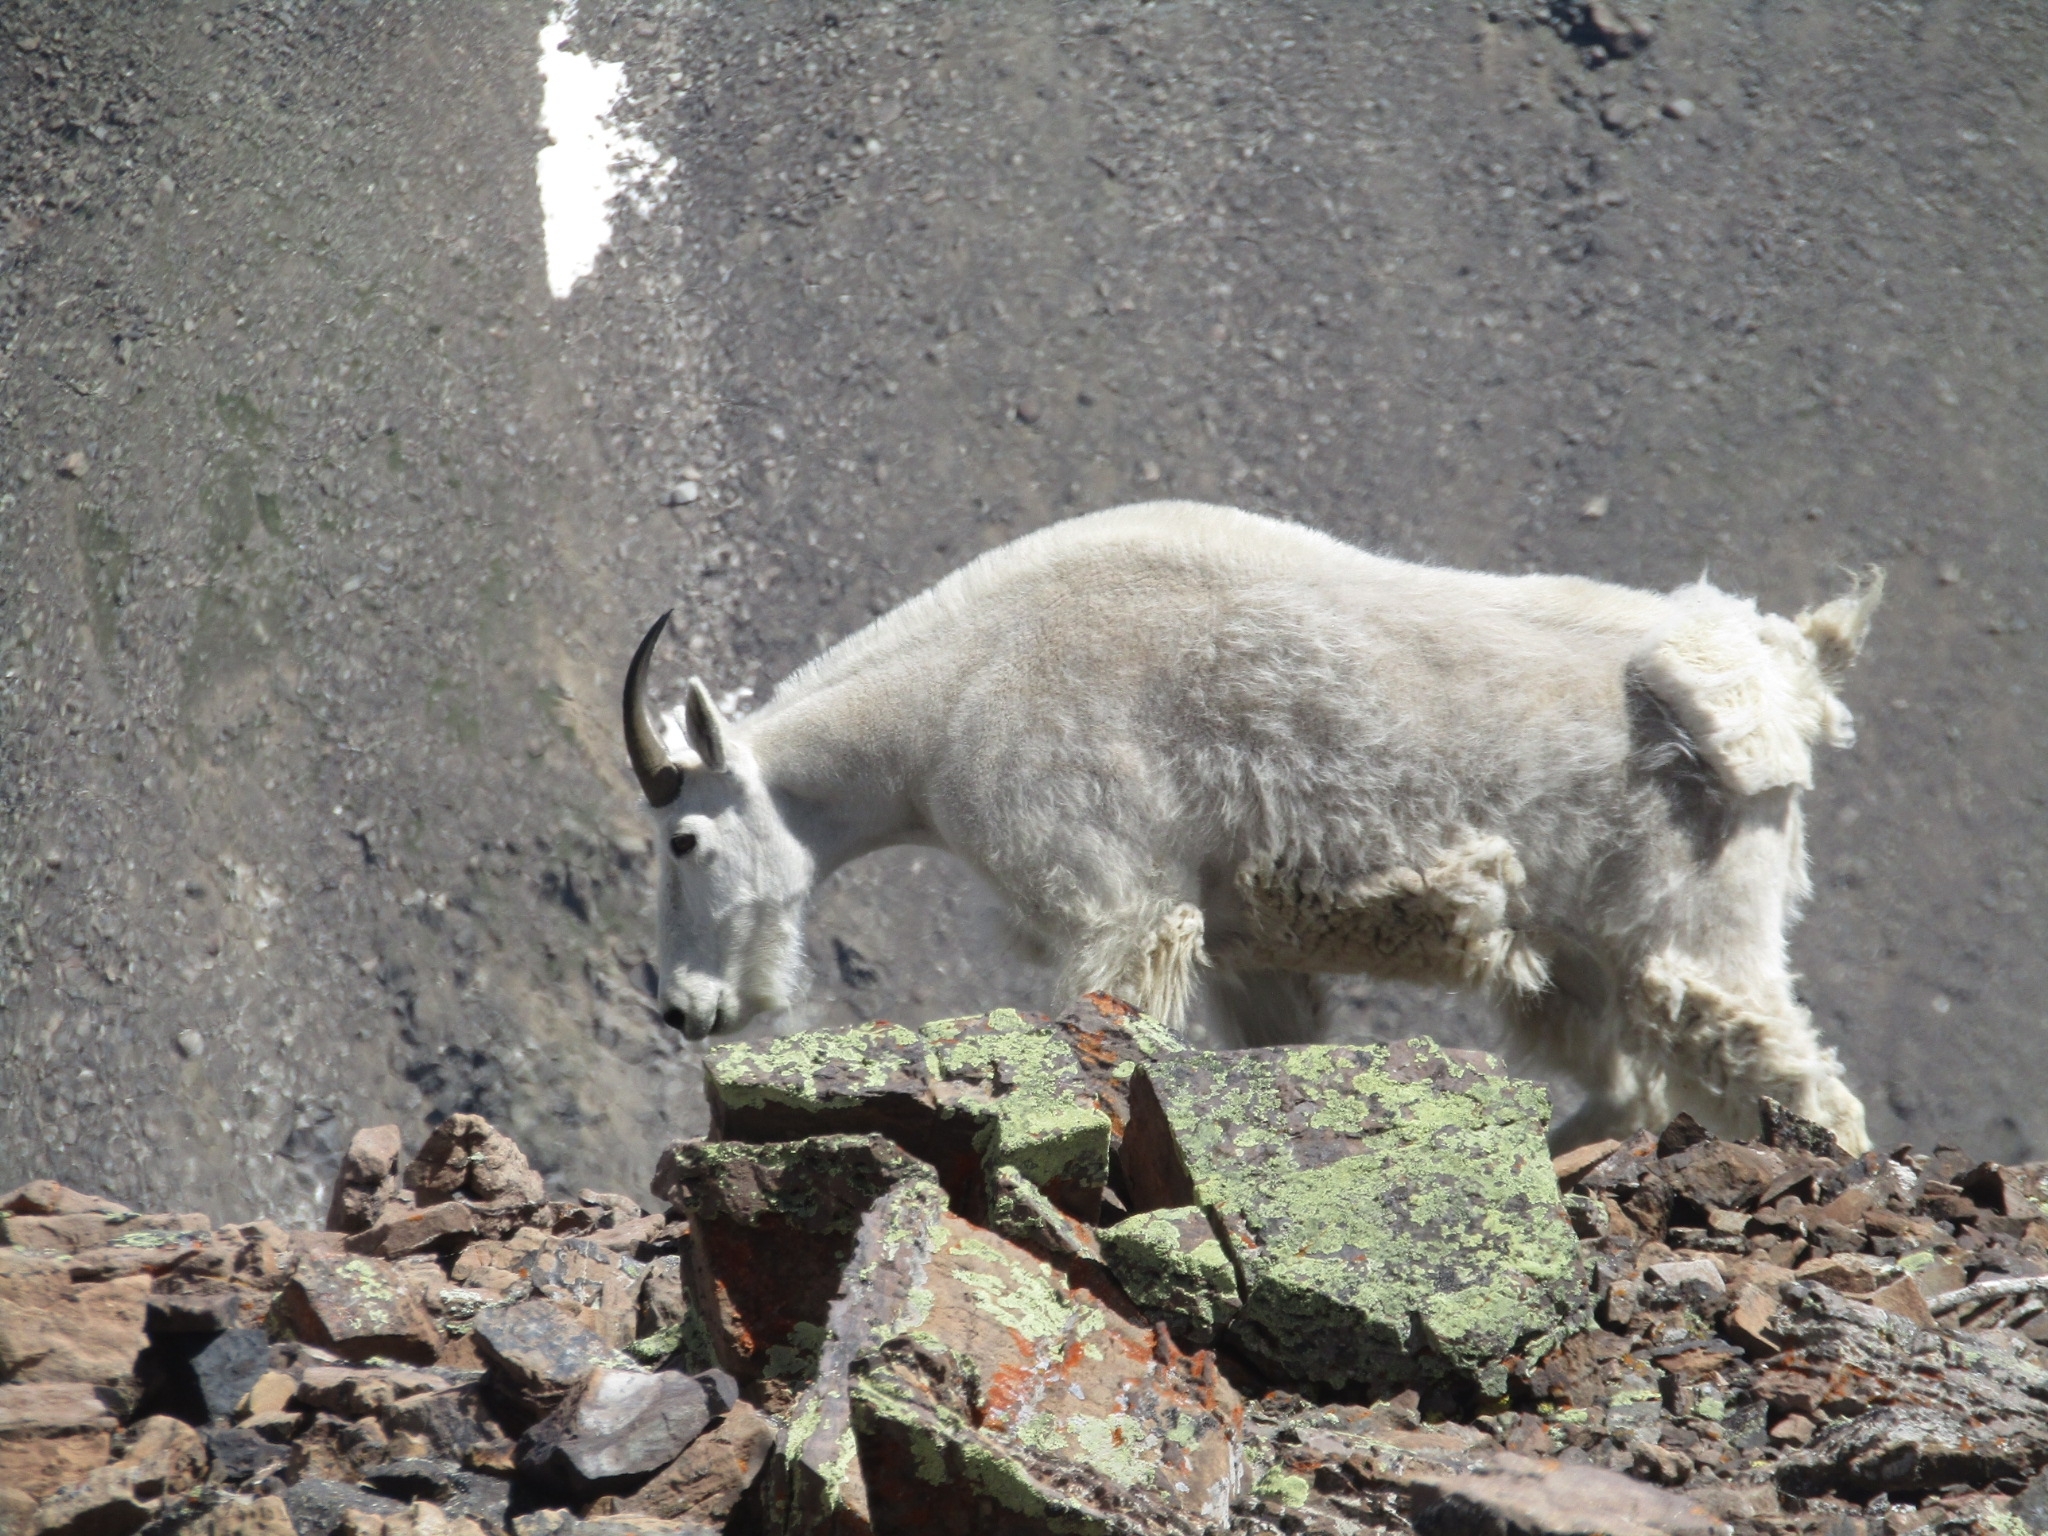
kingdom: Animalia
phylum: Chordata
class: Mammalia
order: Artiodactyla
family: Bovidae
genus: Oreamnos
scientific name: Oreamnos americanus
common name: Mountain goat
